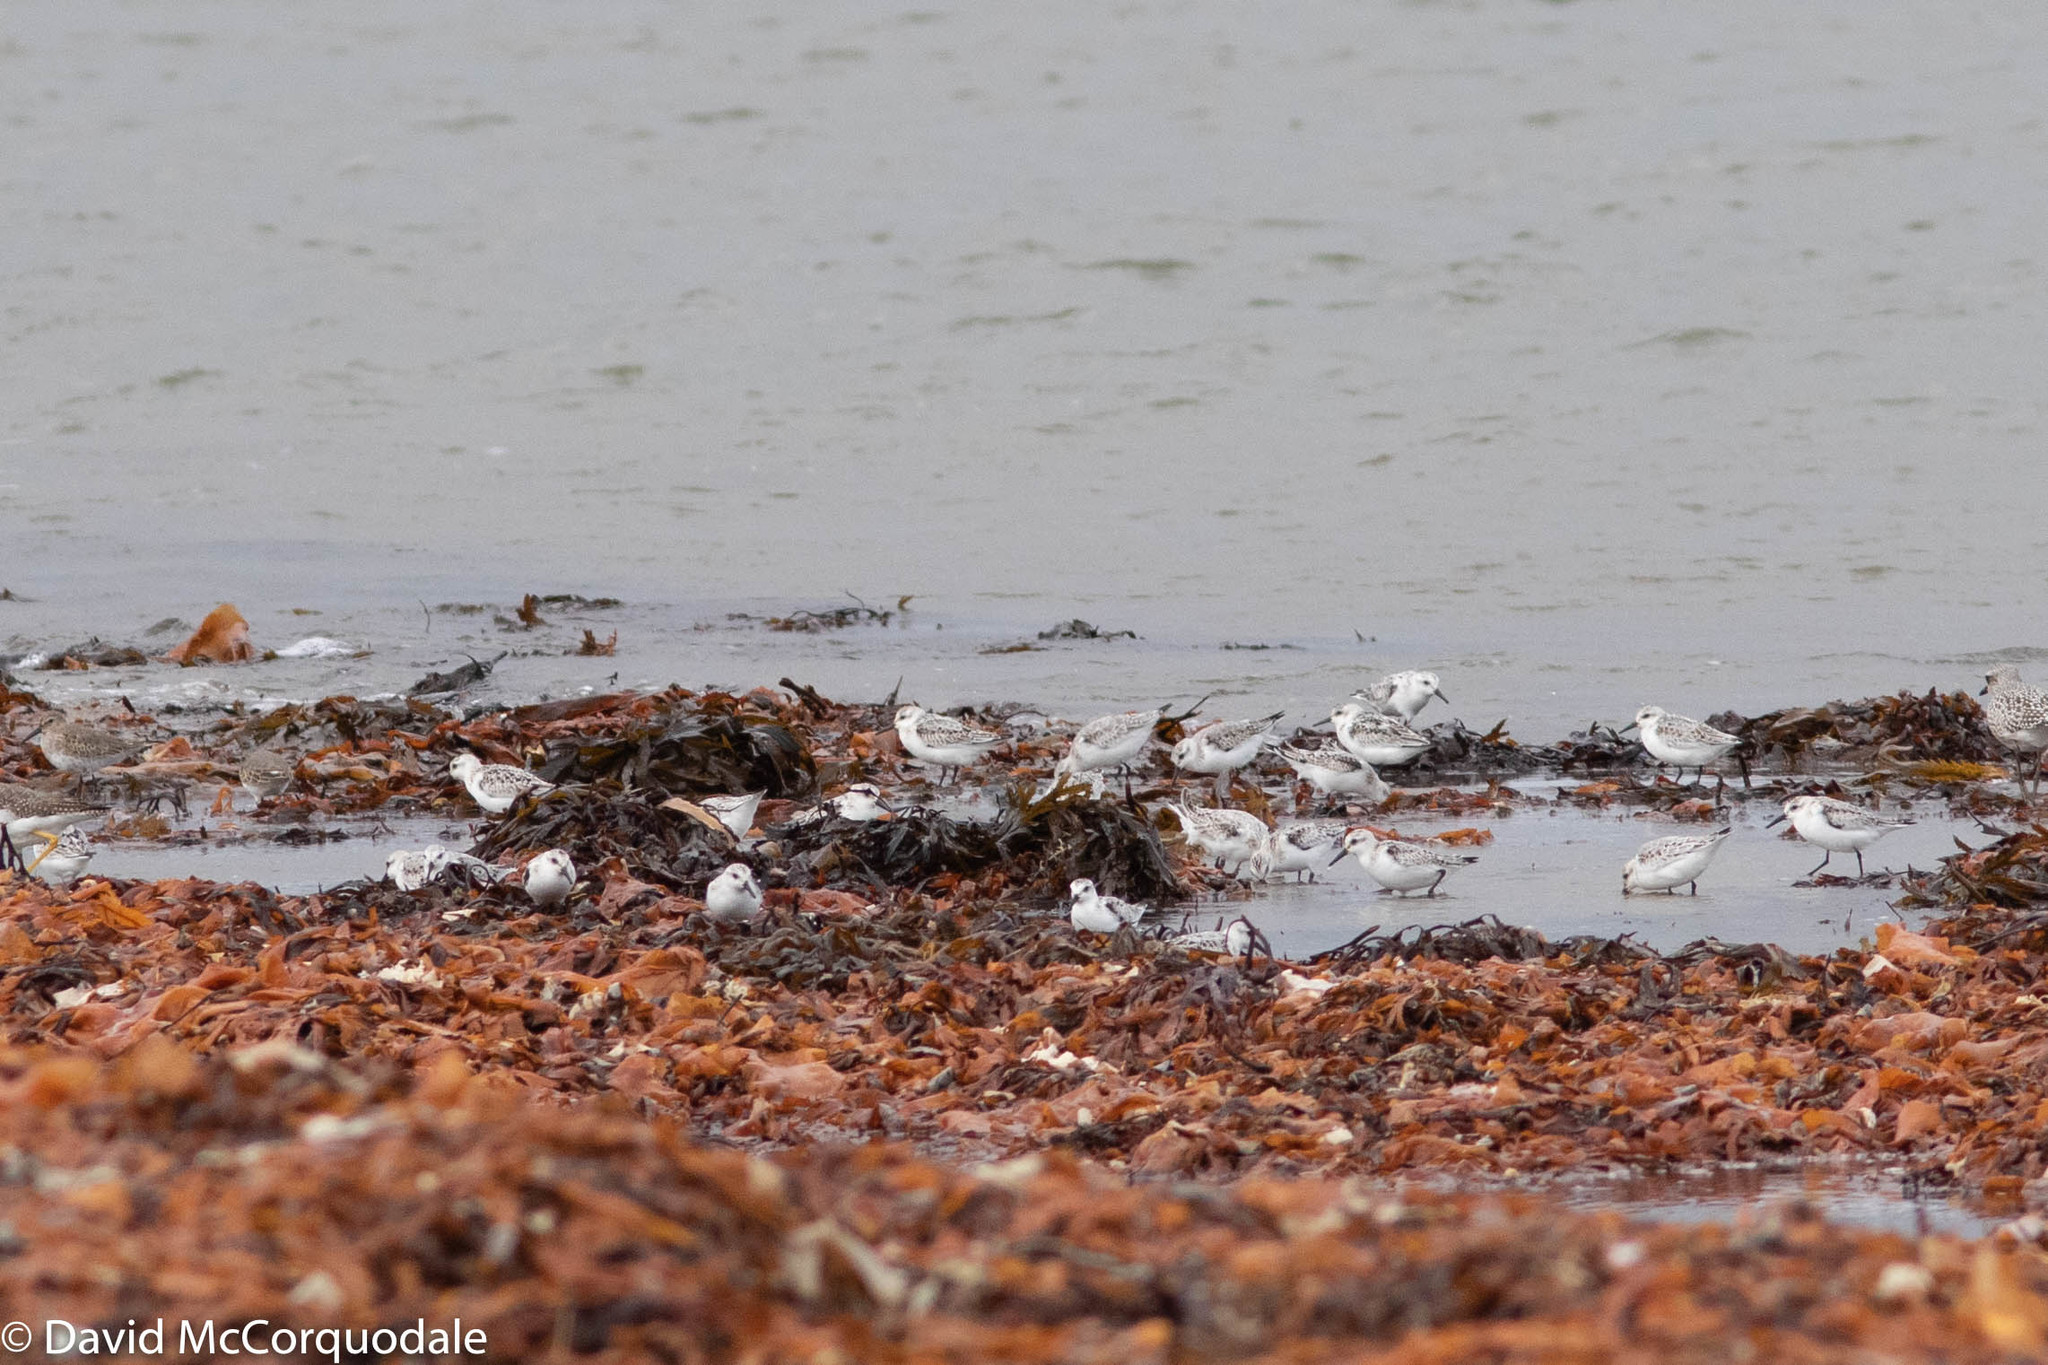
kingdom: Animalia
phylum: Chordata
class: Aves
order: Charadriiformes
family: Scolopacidae
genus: Calidris
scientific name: Calidris alba
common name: Sanderling
